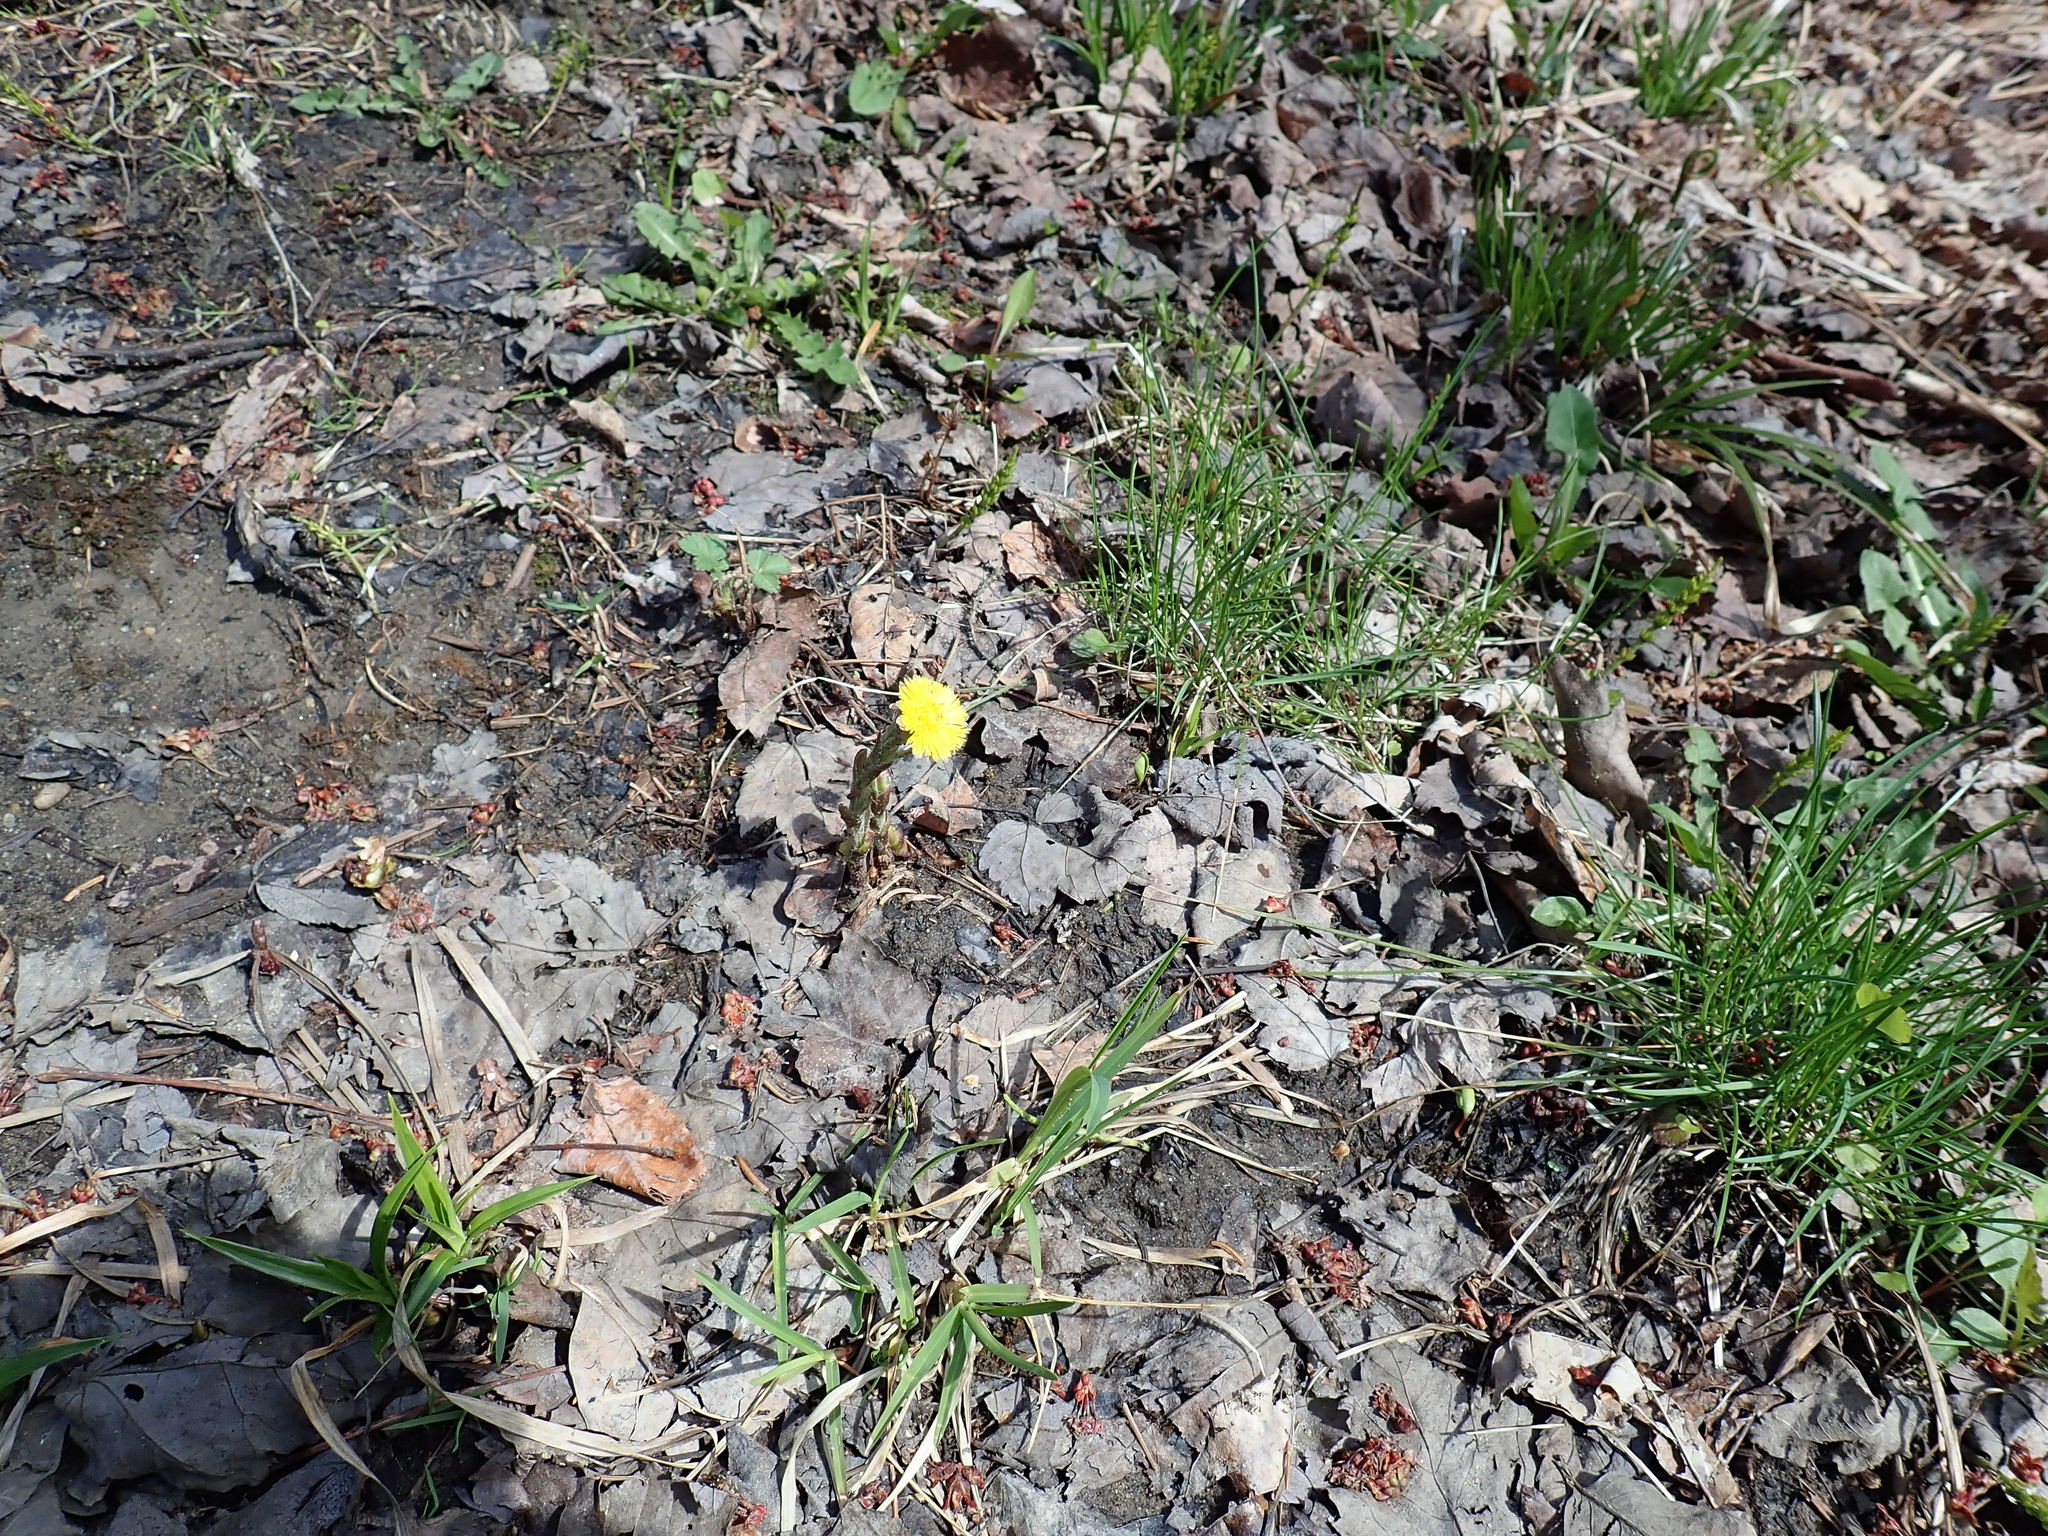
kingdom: Plantae
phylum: Tracheophyta
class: Magnoliopsida
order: Asterales
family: Asteraceae
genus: Tussilago
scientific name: Tussilago farfara
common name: Coltsfoot
